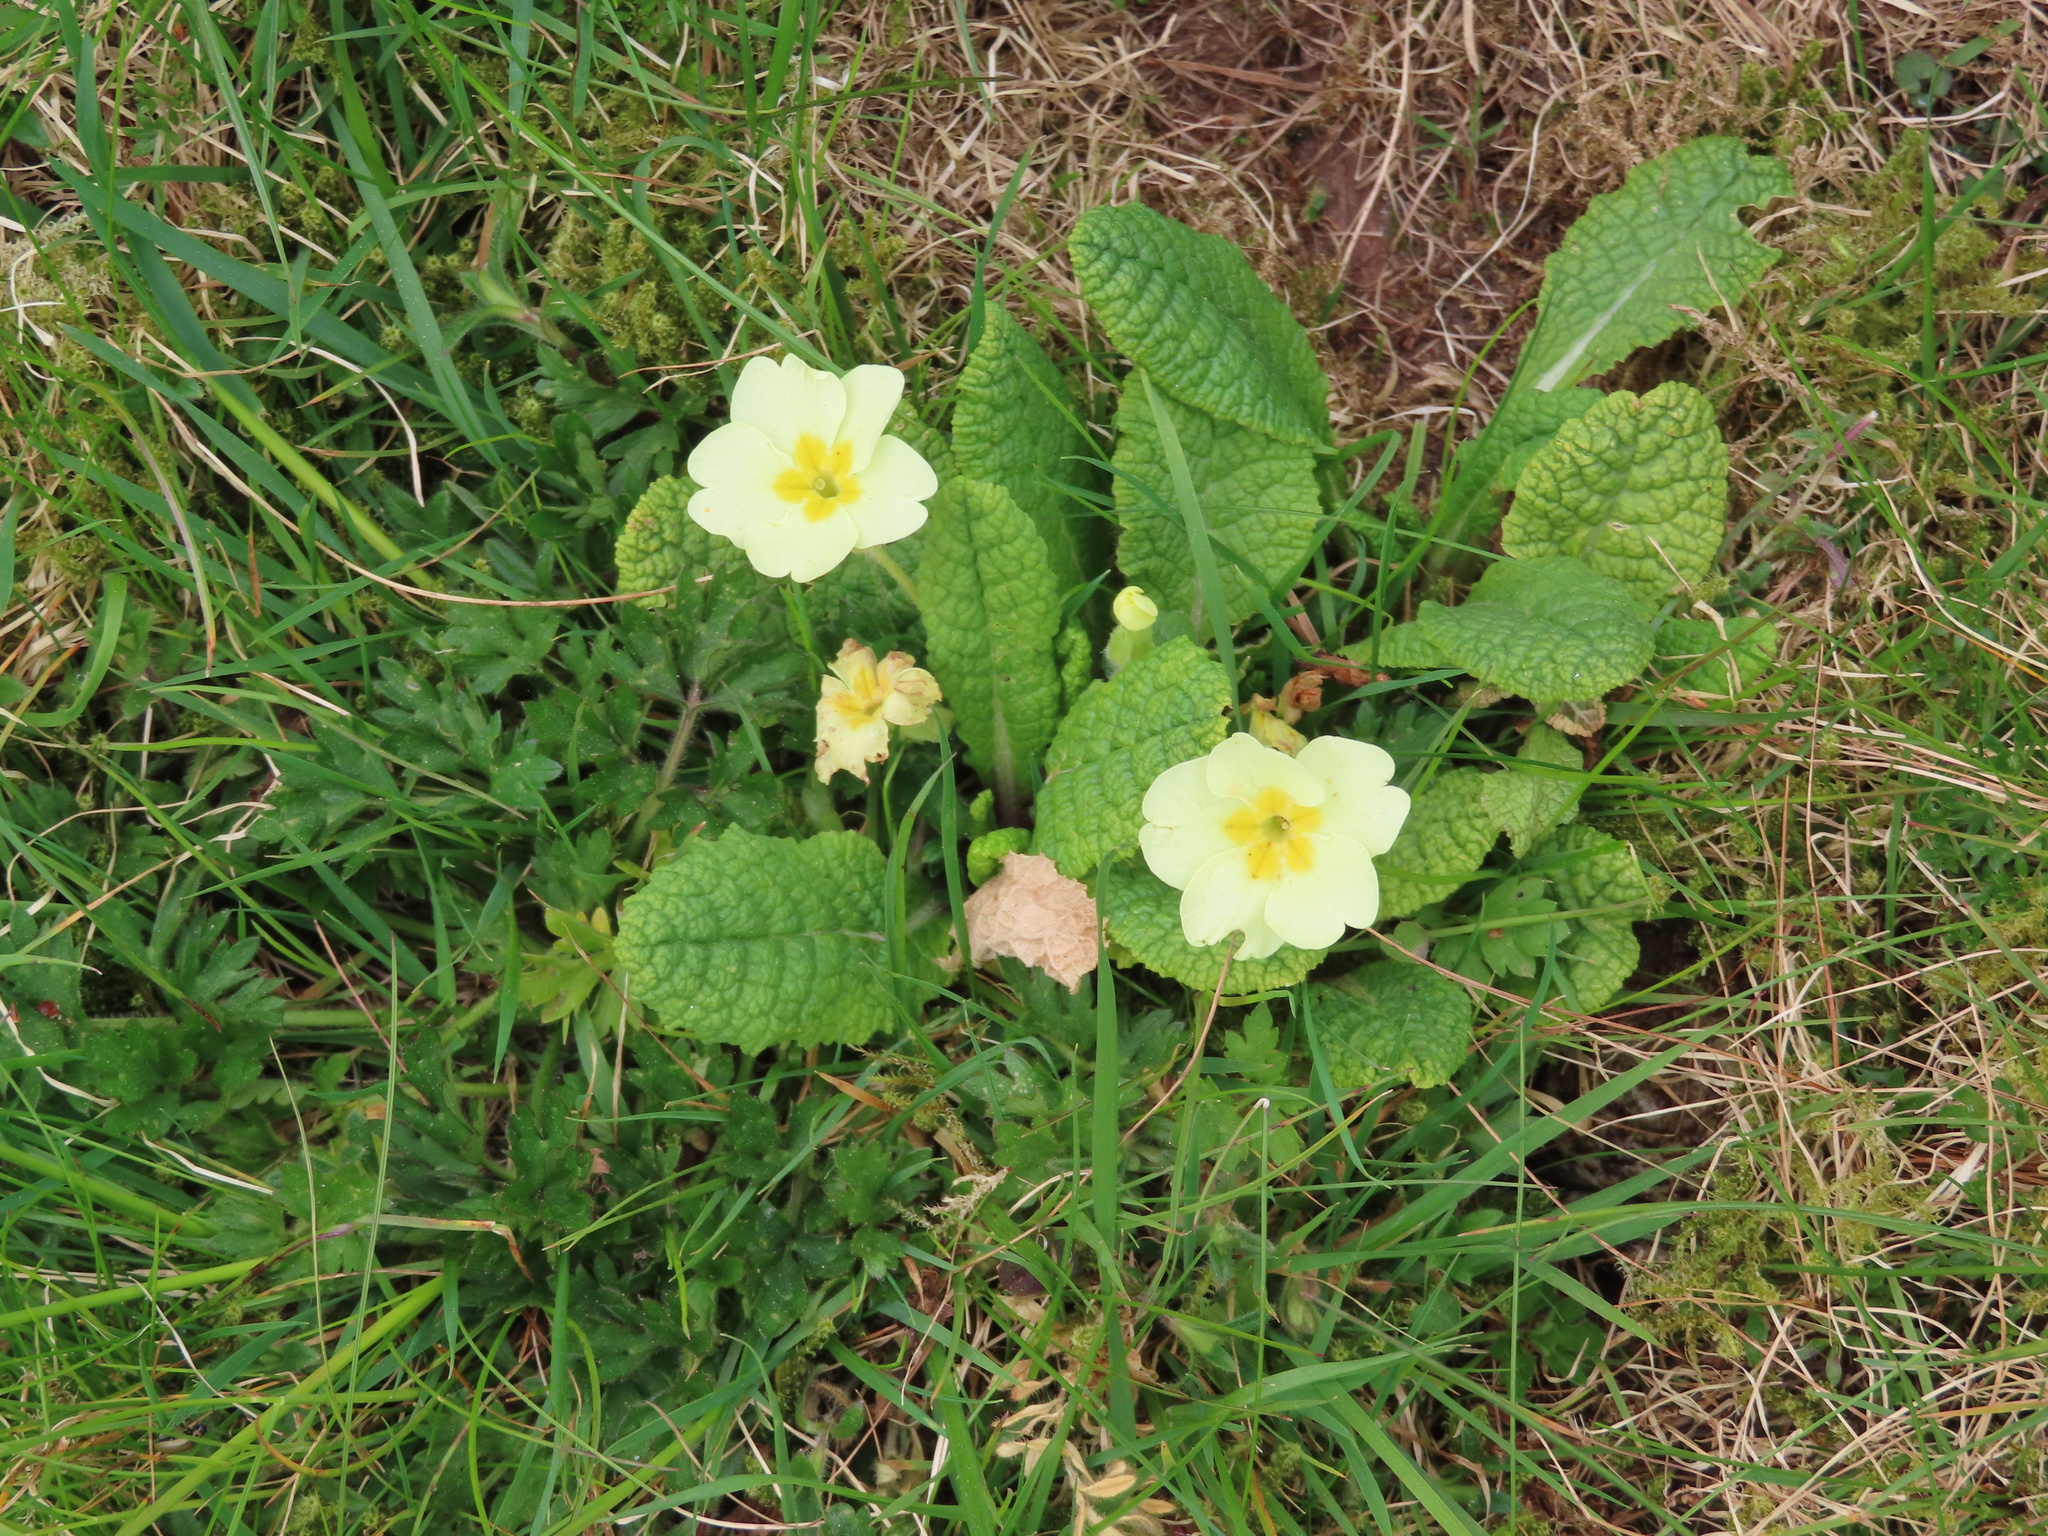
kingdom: Plantae
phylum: Tracheophyta
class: Magnoliopsida
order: Ericales
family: Primulaceae
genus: Primula
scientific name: Primula vulgaris
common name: Primrose
